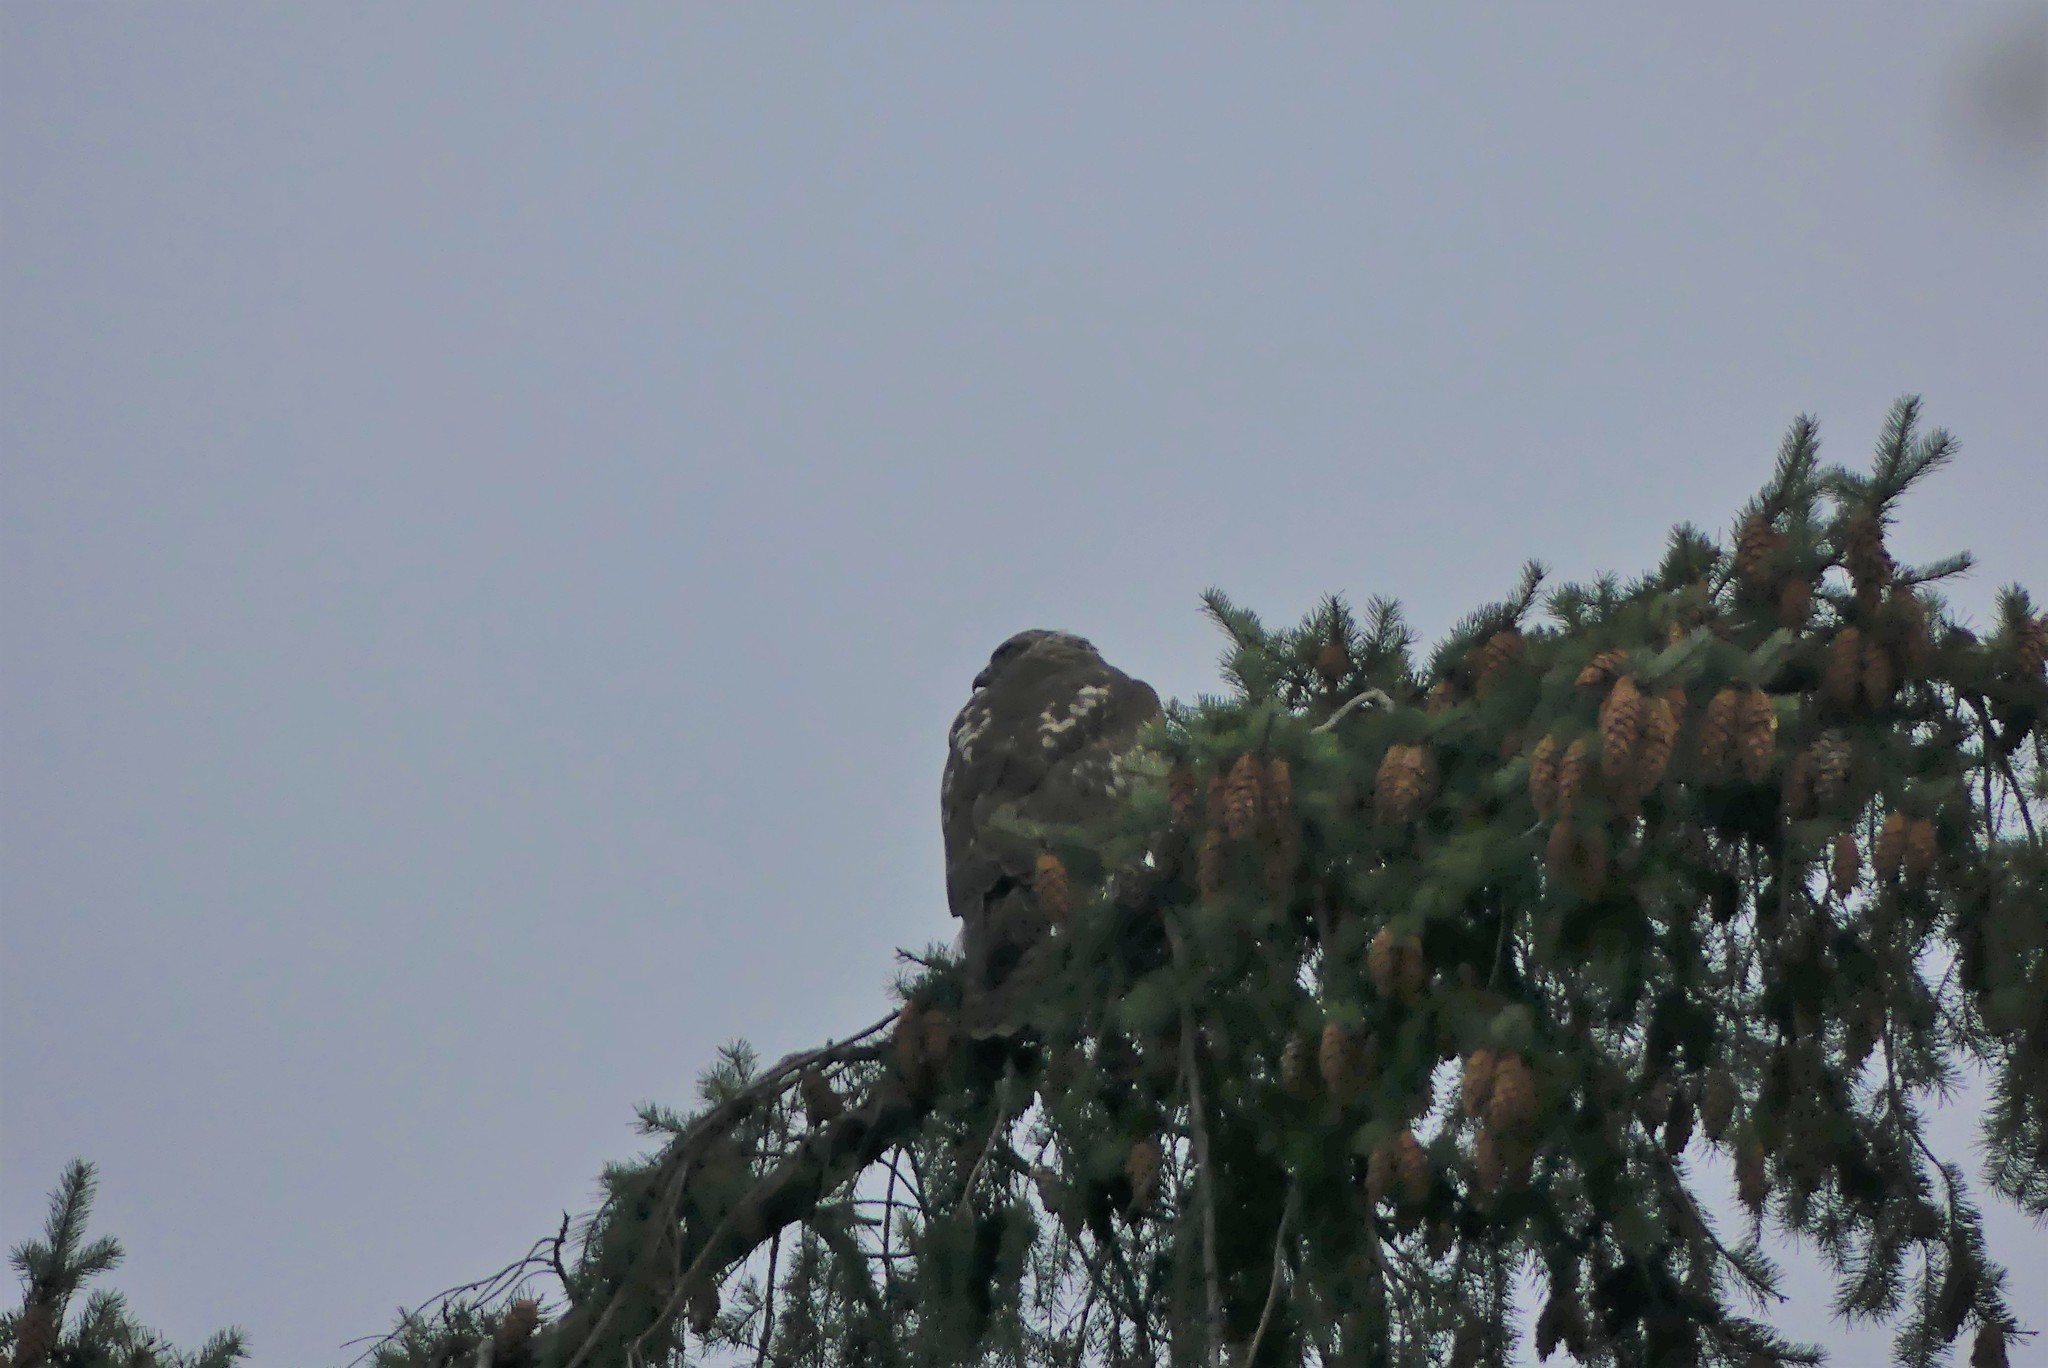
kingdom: Animalia
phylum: Chordata
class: Aves
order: Accipitriformes
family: Accipitridae
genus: Buteo
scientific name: Buteo jamaicensis
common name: Red-tailed hawk
